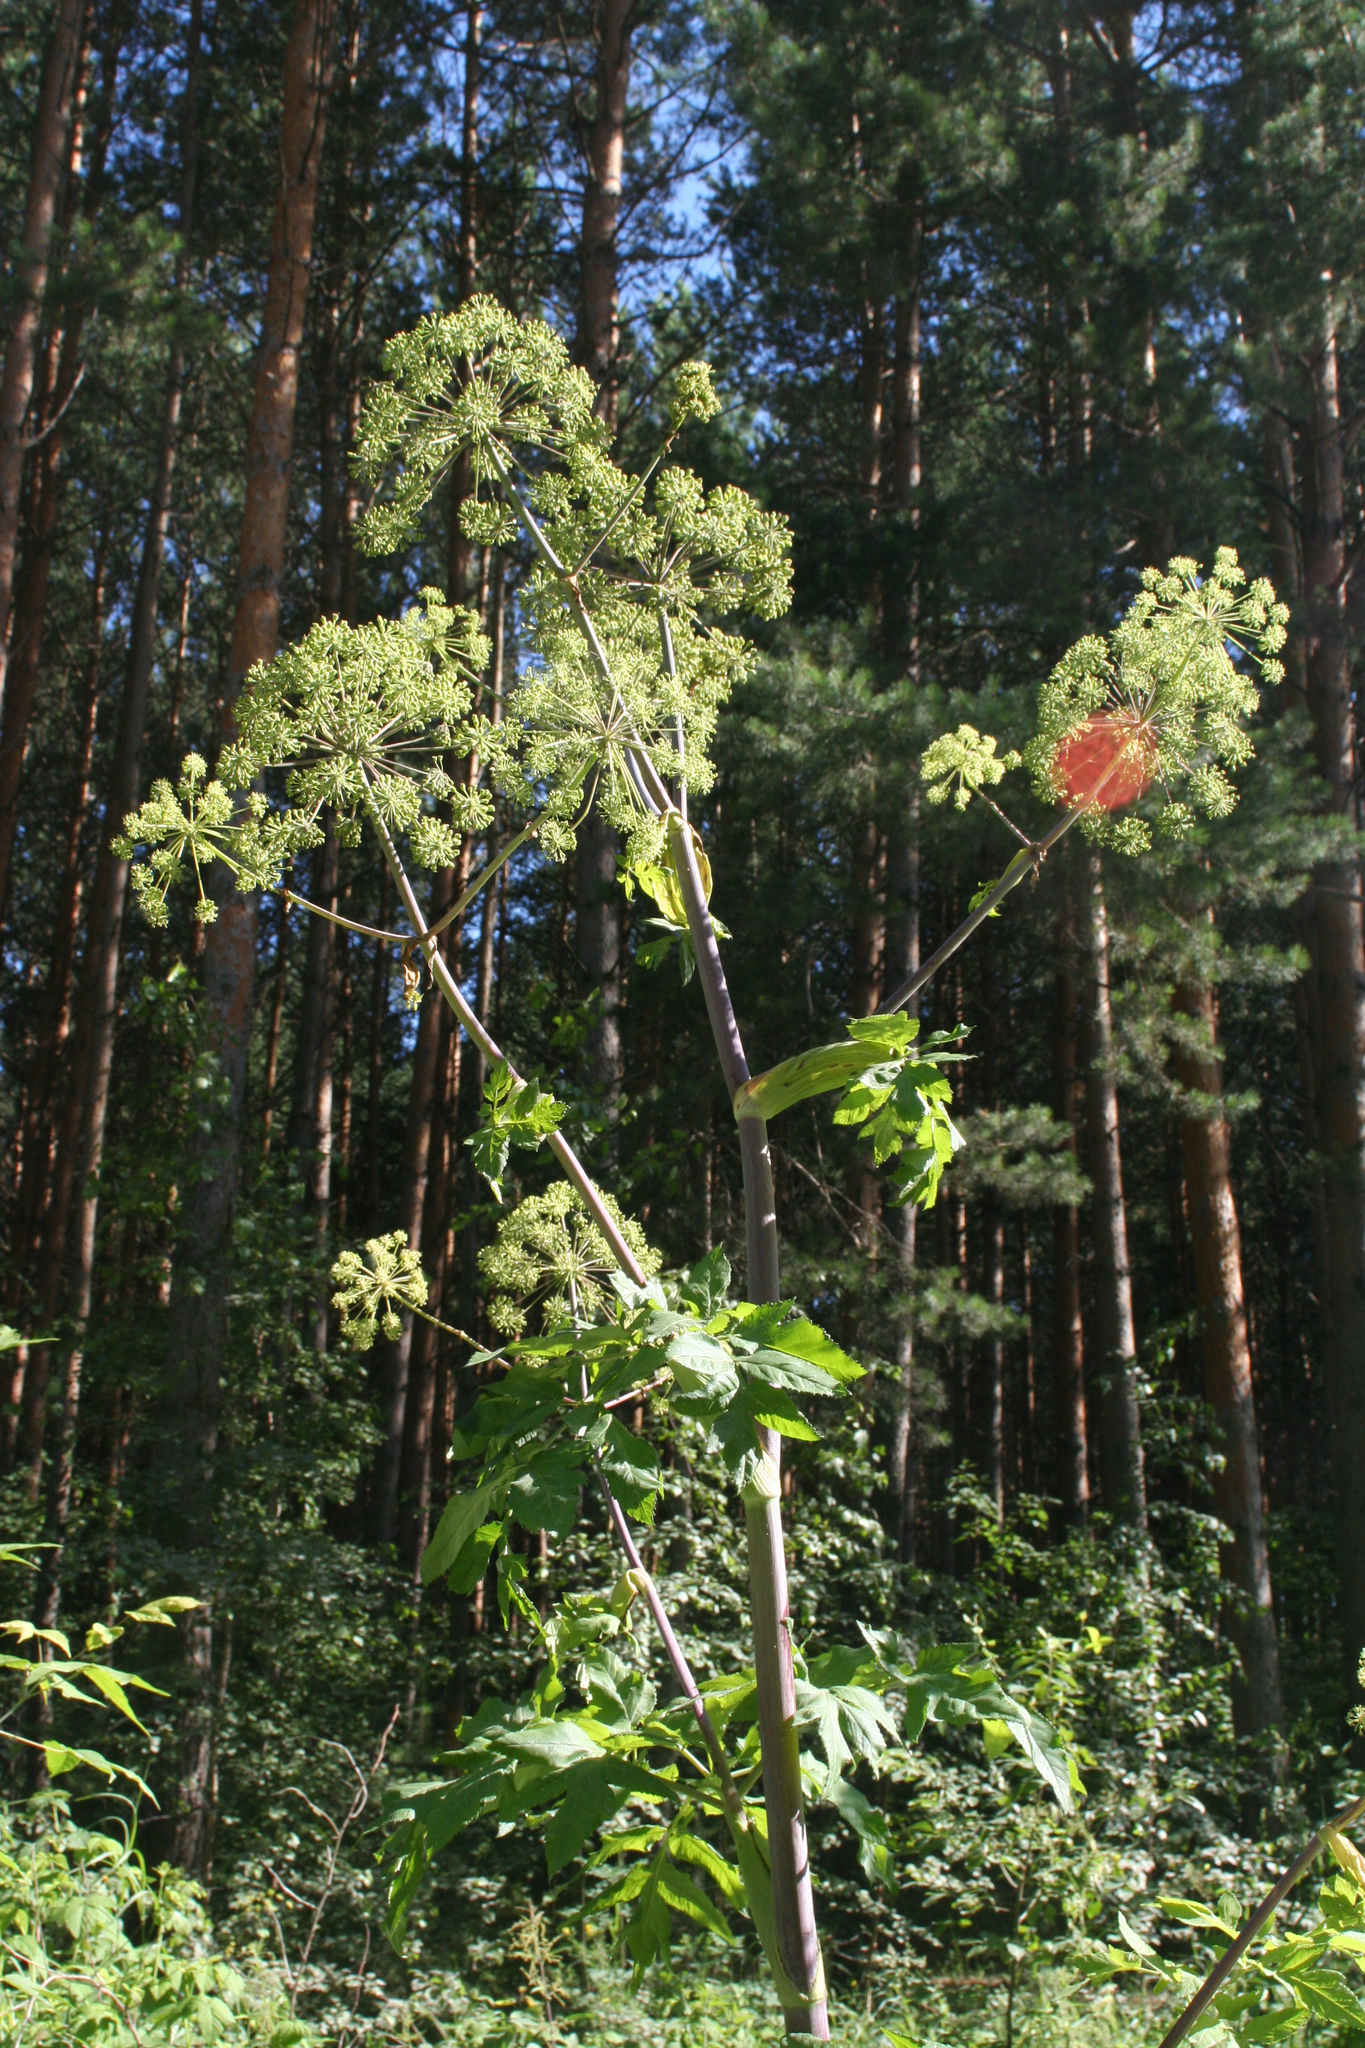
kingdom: Plantae
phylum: Tracheophyta
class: Magnoliopsida
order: Apiales
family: Apiaceae
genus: Angelica
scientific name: Angelica decurrens
